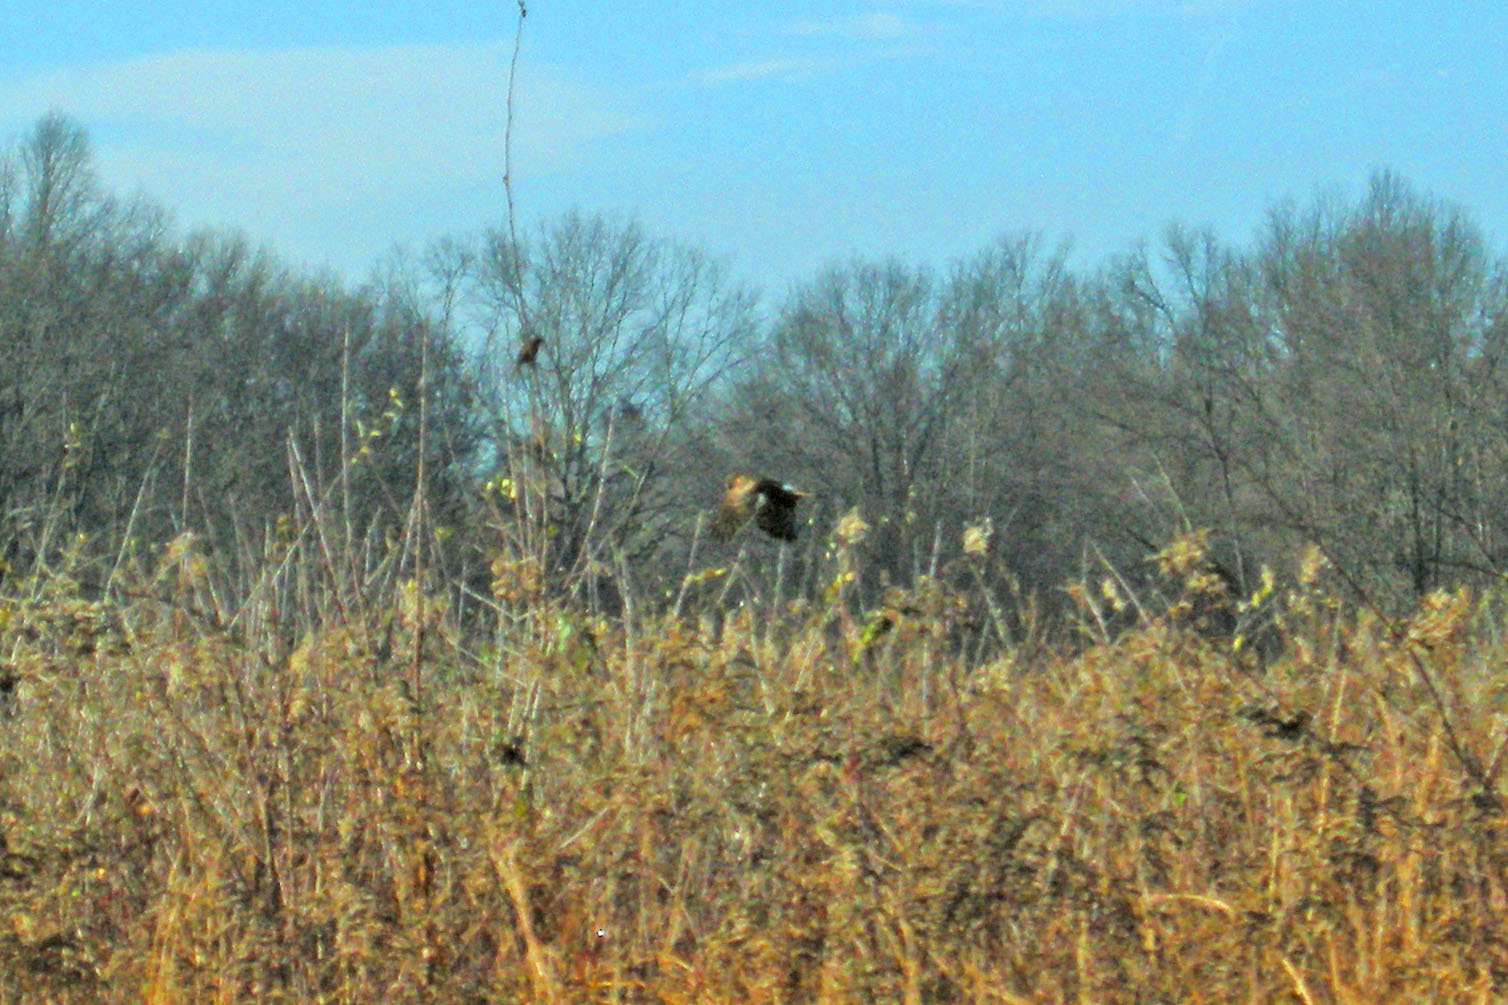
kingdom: Animalia
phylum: Chordata
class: Aves
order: Accipitriformes
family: Accipitridae
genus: Circus
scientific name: Circus cyaneus
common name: Hen harrier
